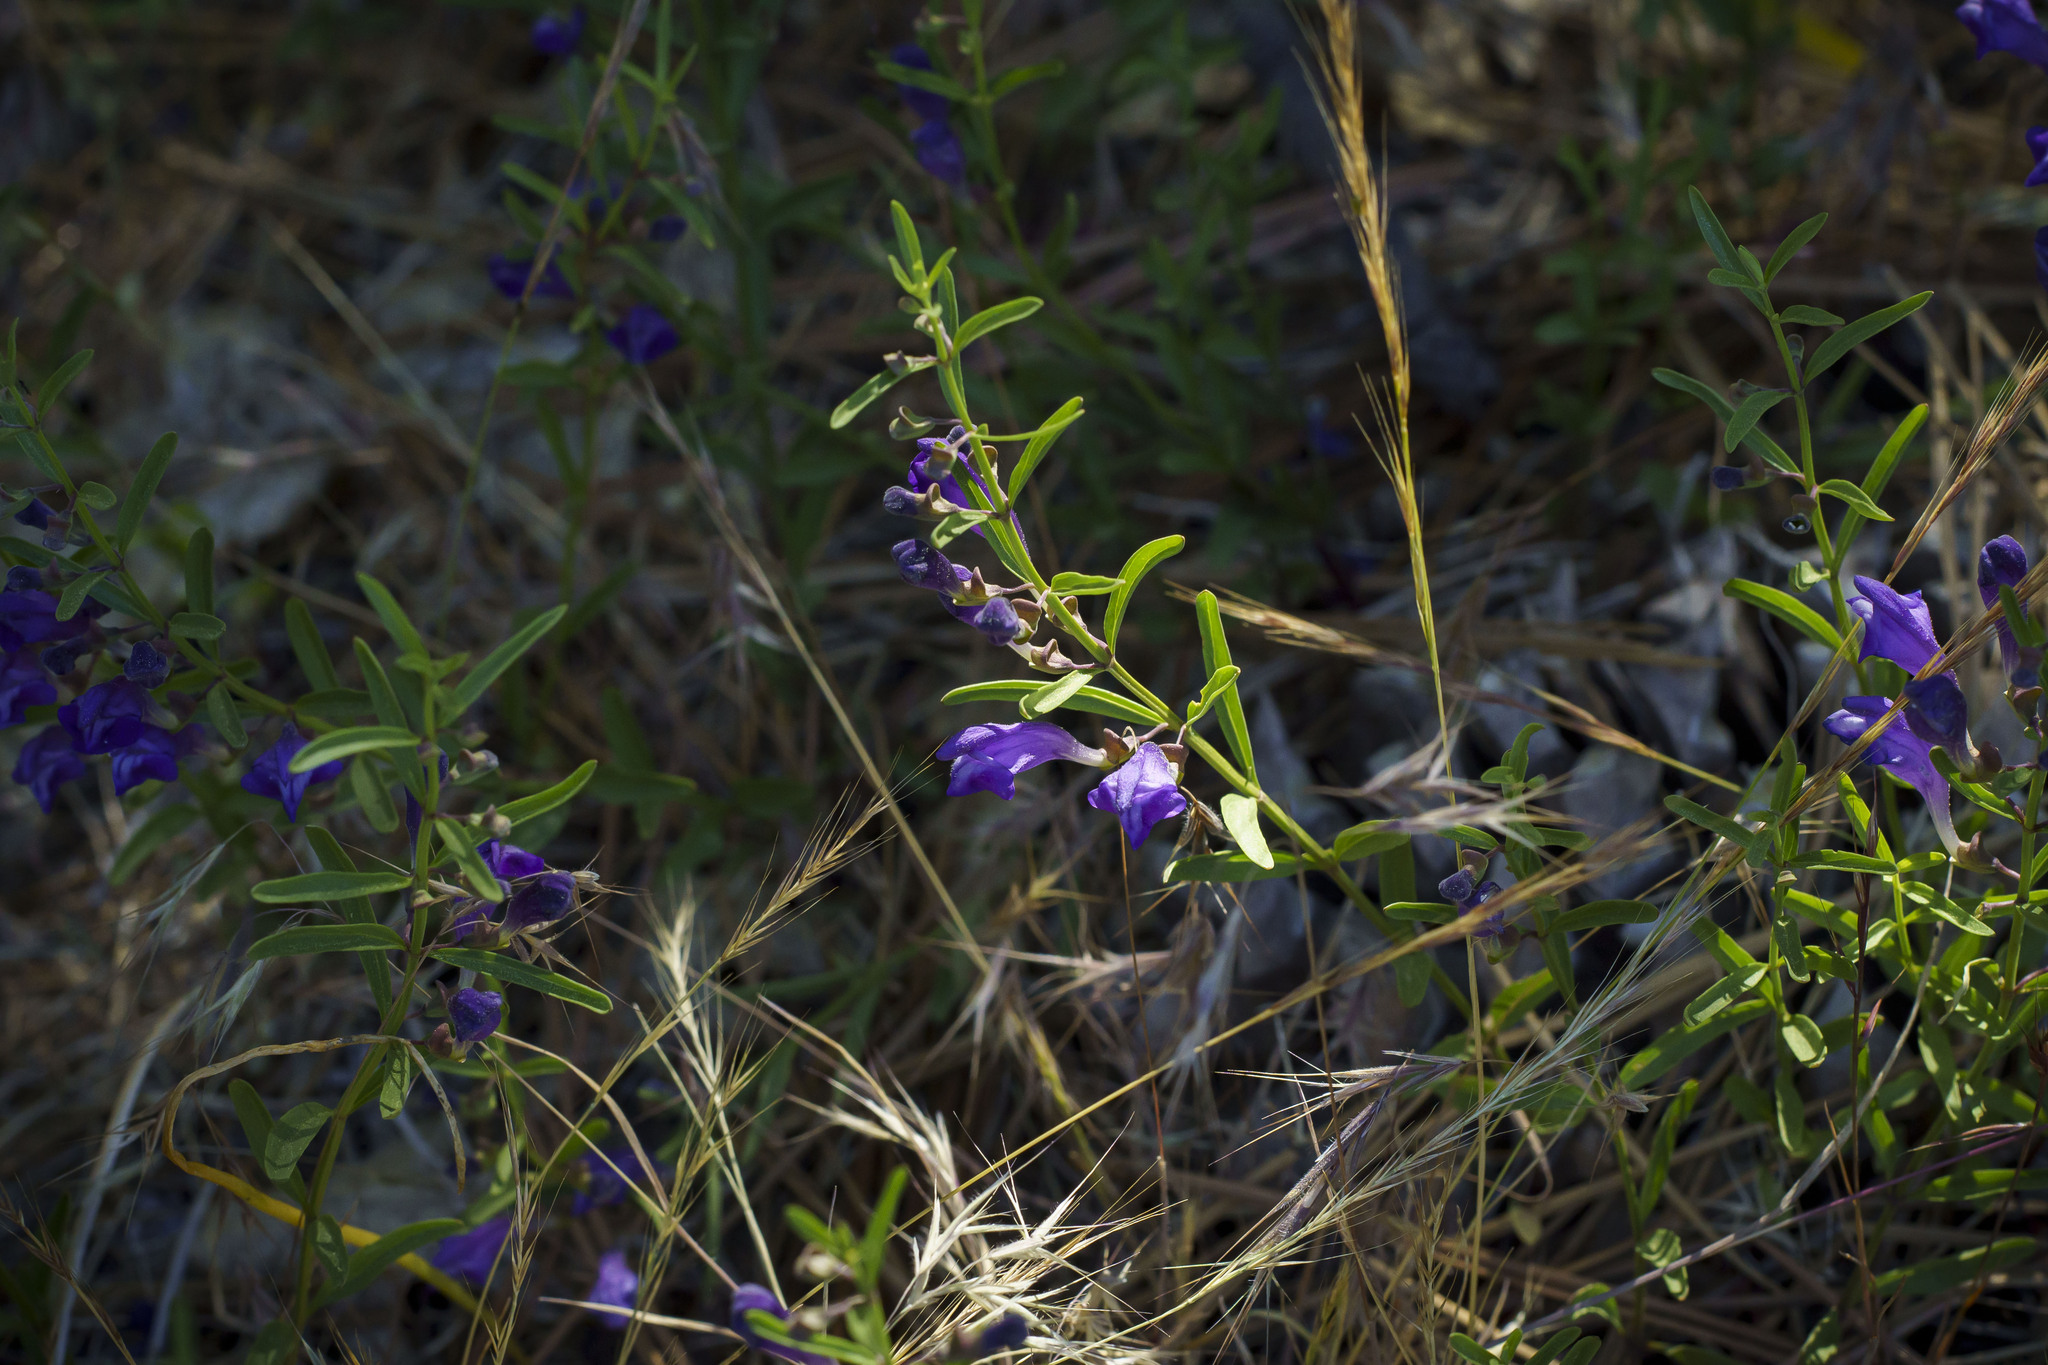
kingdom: Plantae
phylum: Tracheophyta
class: Magnoliopsida
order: Lamiales
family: Lamiaceae
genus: Scutellaria
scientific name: Scutellaria siphocampyloides
